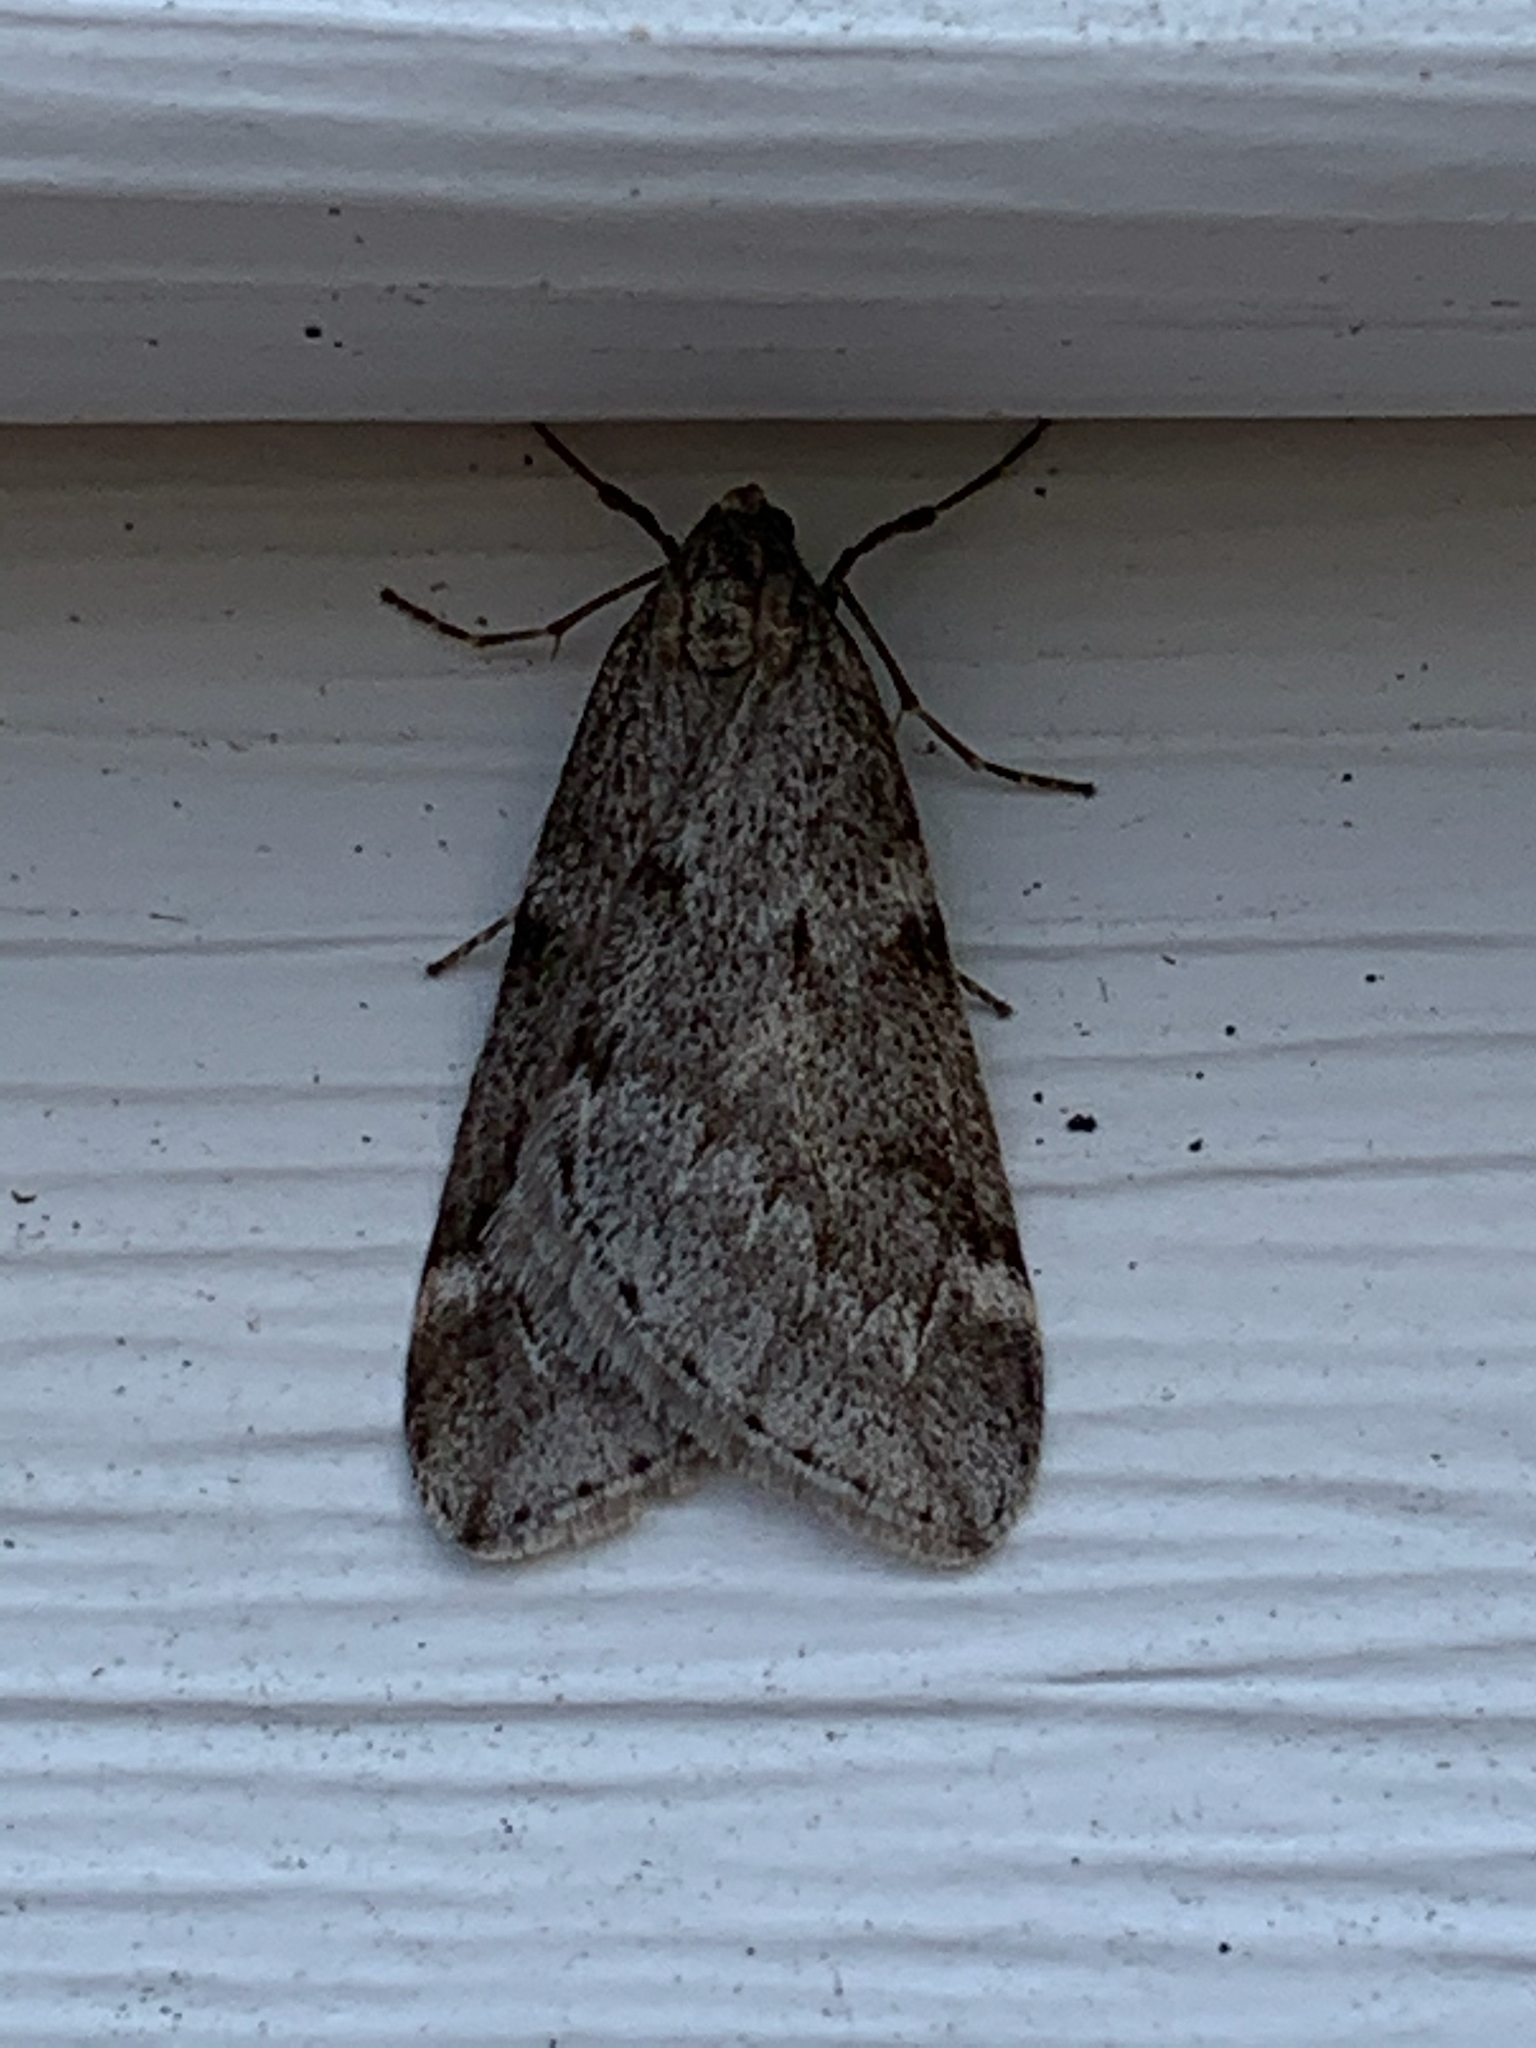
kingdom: Animalia
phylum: Arthropoda
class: Insecta
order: Lepidoptera
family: Geometridae
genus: Alsophila
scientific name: Alsophila pometaria
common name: Fall cankerworm
